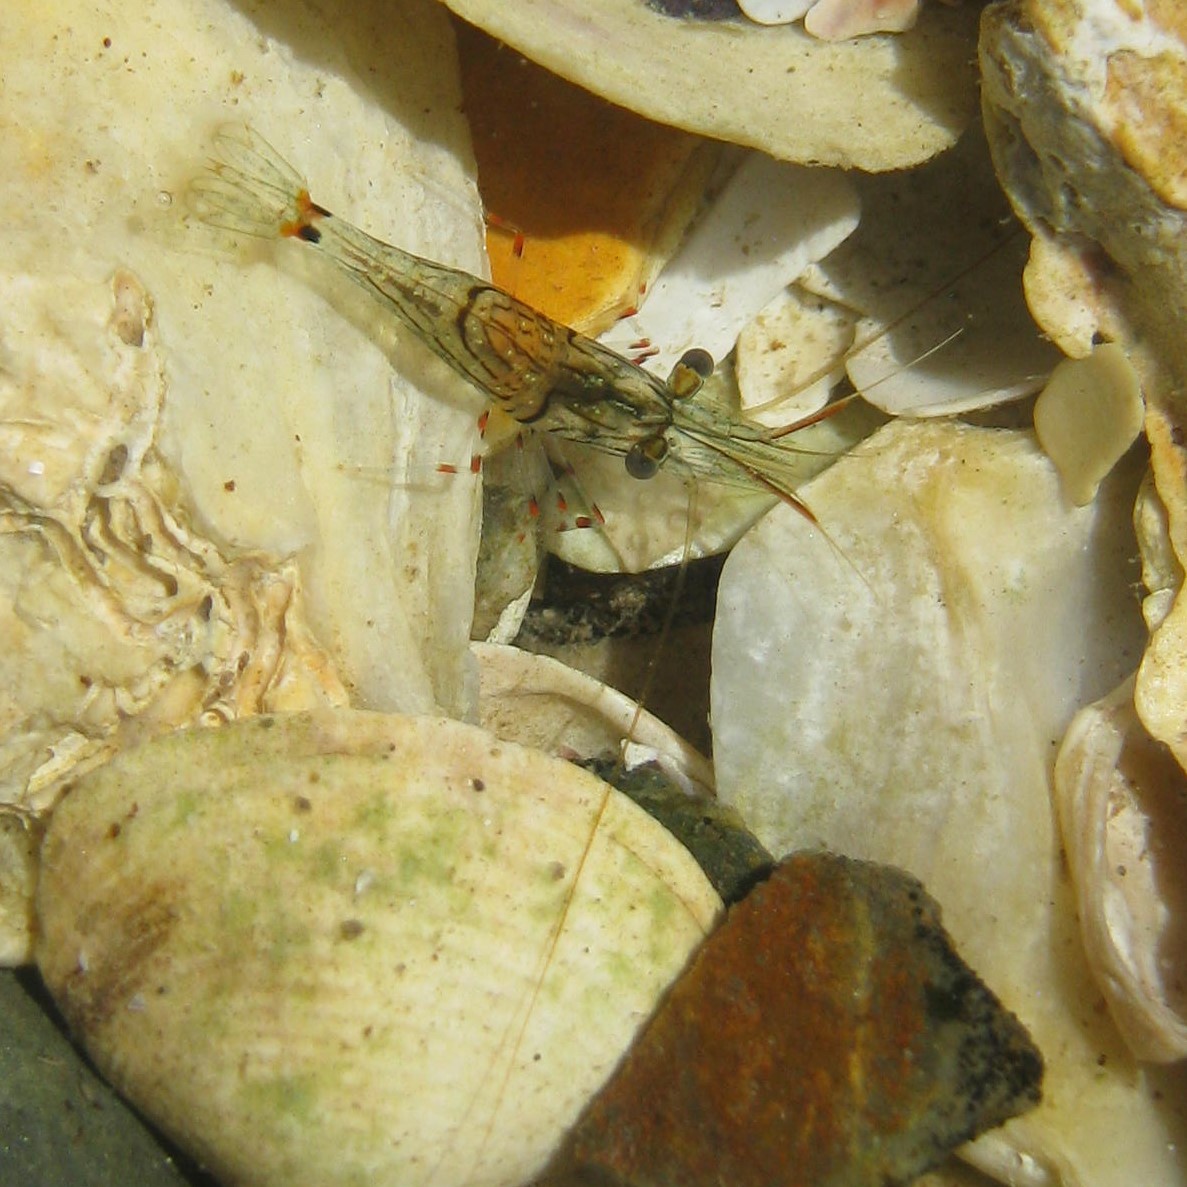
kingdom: Animalia
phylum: Arthropoda
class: Malacostraca
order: Decapoda
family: Palaemonidae
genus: Palaemon
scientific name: Palaemon affinis
